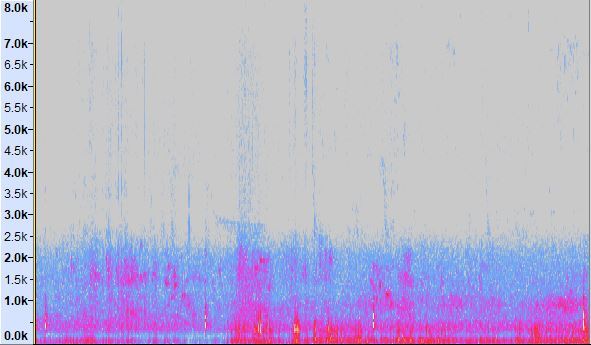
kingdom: Animalia
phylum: Chordata
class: Amphibia
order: Anura
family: Limnodynastidae
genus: Limnodynastes
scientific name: Limnodynastes dumerilii
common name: Banjo frog
